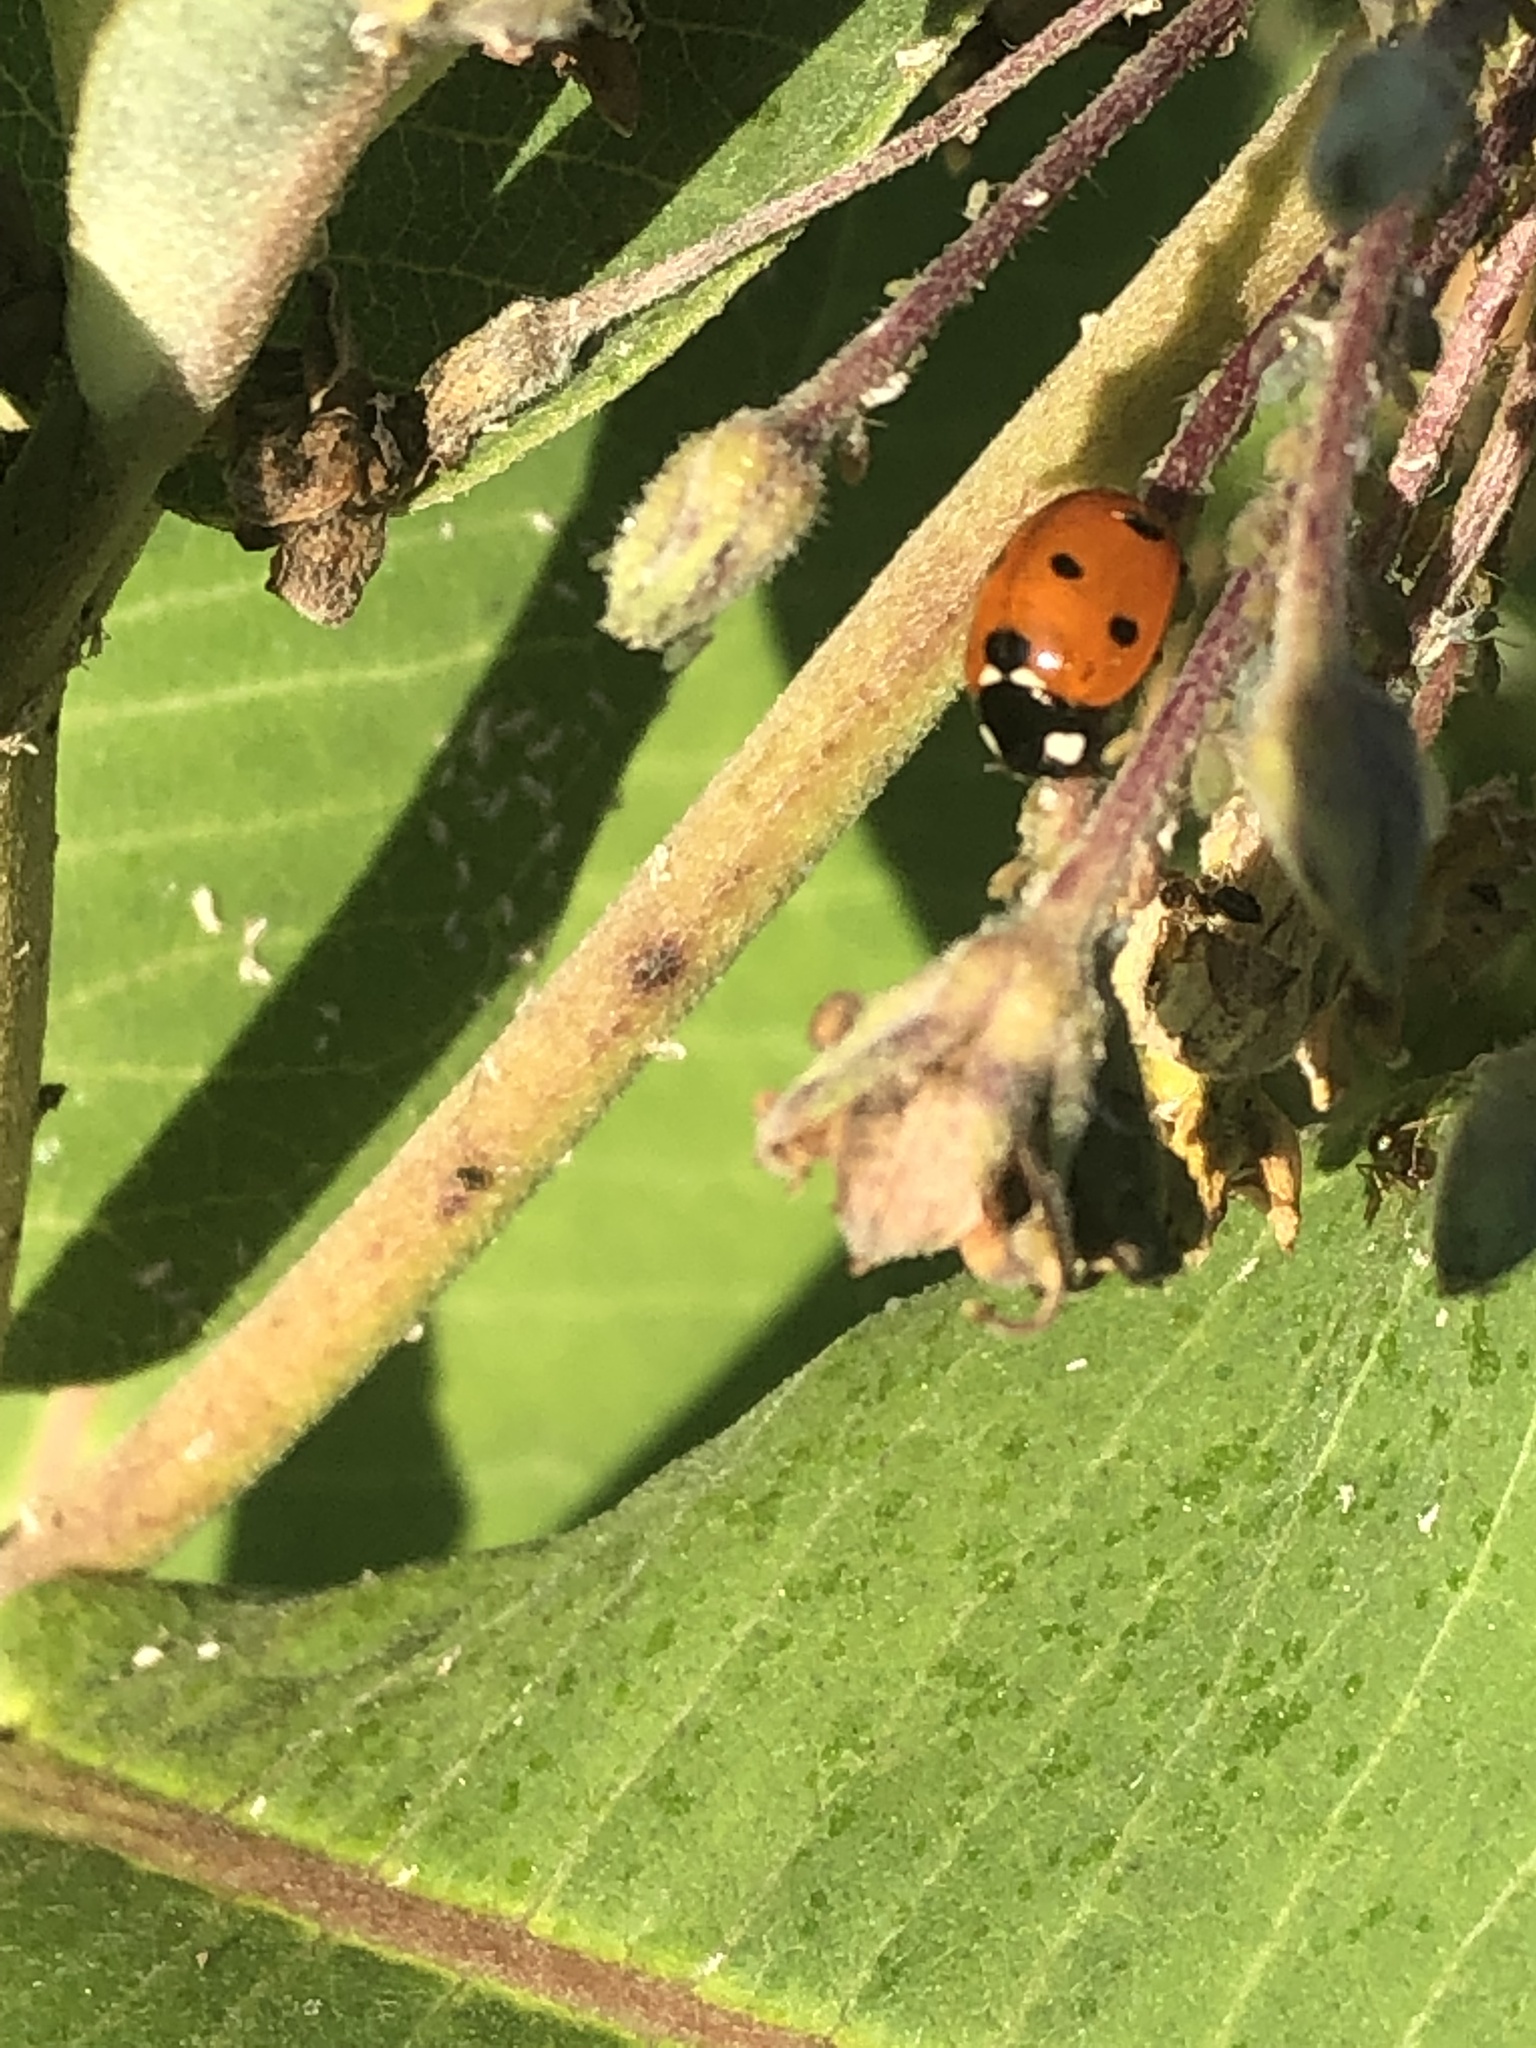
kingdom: Animalia
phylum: Arthropoda
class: Insecta
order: Coleoptera
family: Coccinellidae
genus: Coccinella
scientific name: Coccinella septempunctata
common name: Sevenspotted lady beetle
